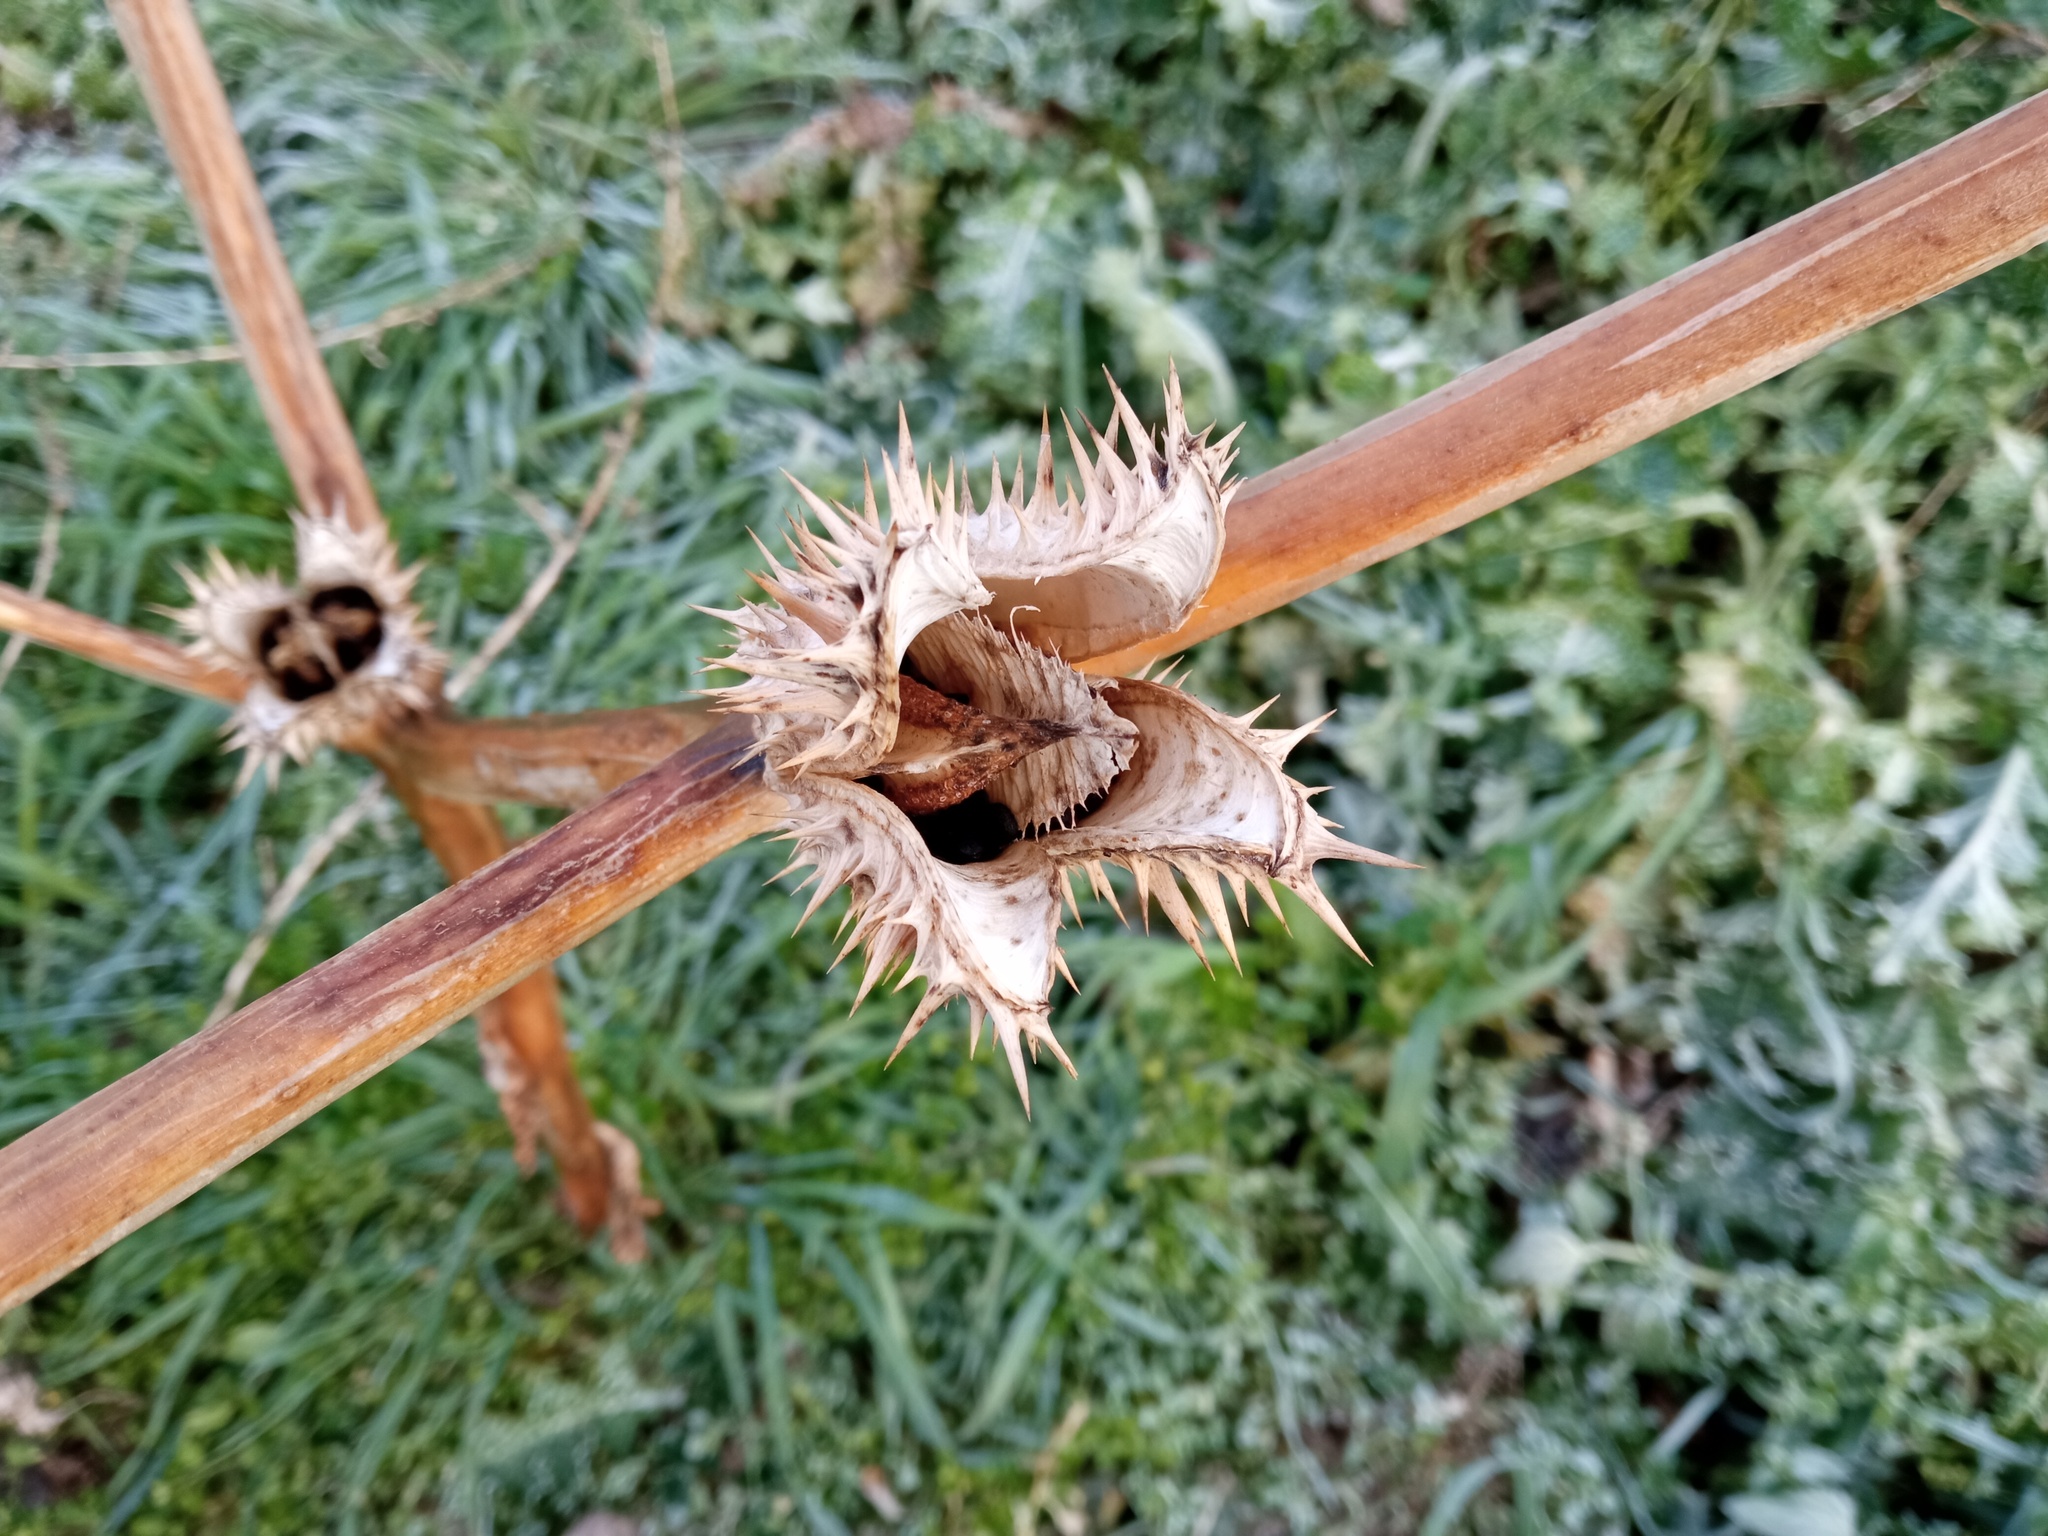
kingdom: Plantae
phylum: Tracheophyta
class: Magnoliopsida
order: Solanales
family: Solanaceae
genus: Datura
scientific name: Datura stramonium
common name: Thorn-apple
